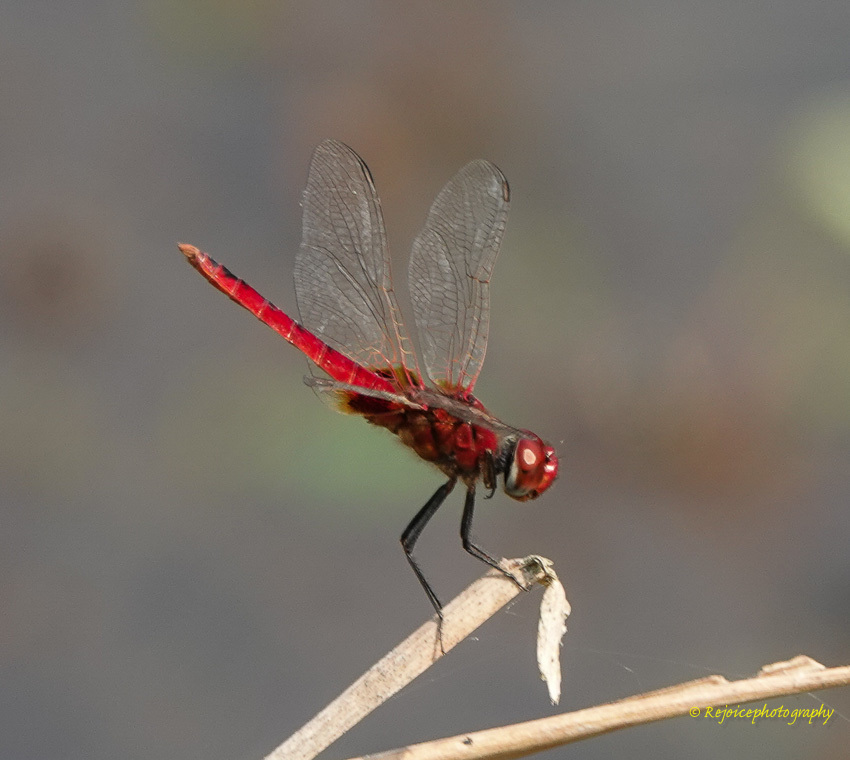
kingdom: Animalia
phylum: Arthropoda
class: Insecta
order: Odonata
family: Libellulidae
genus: Urothemis
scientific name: Urothemis signata
